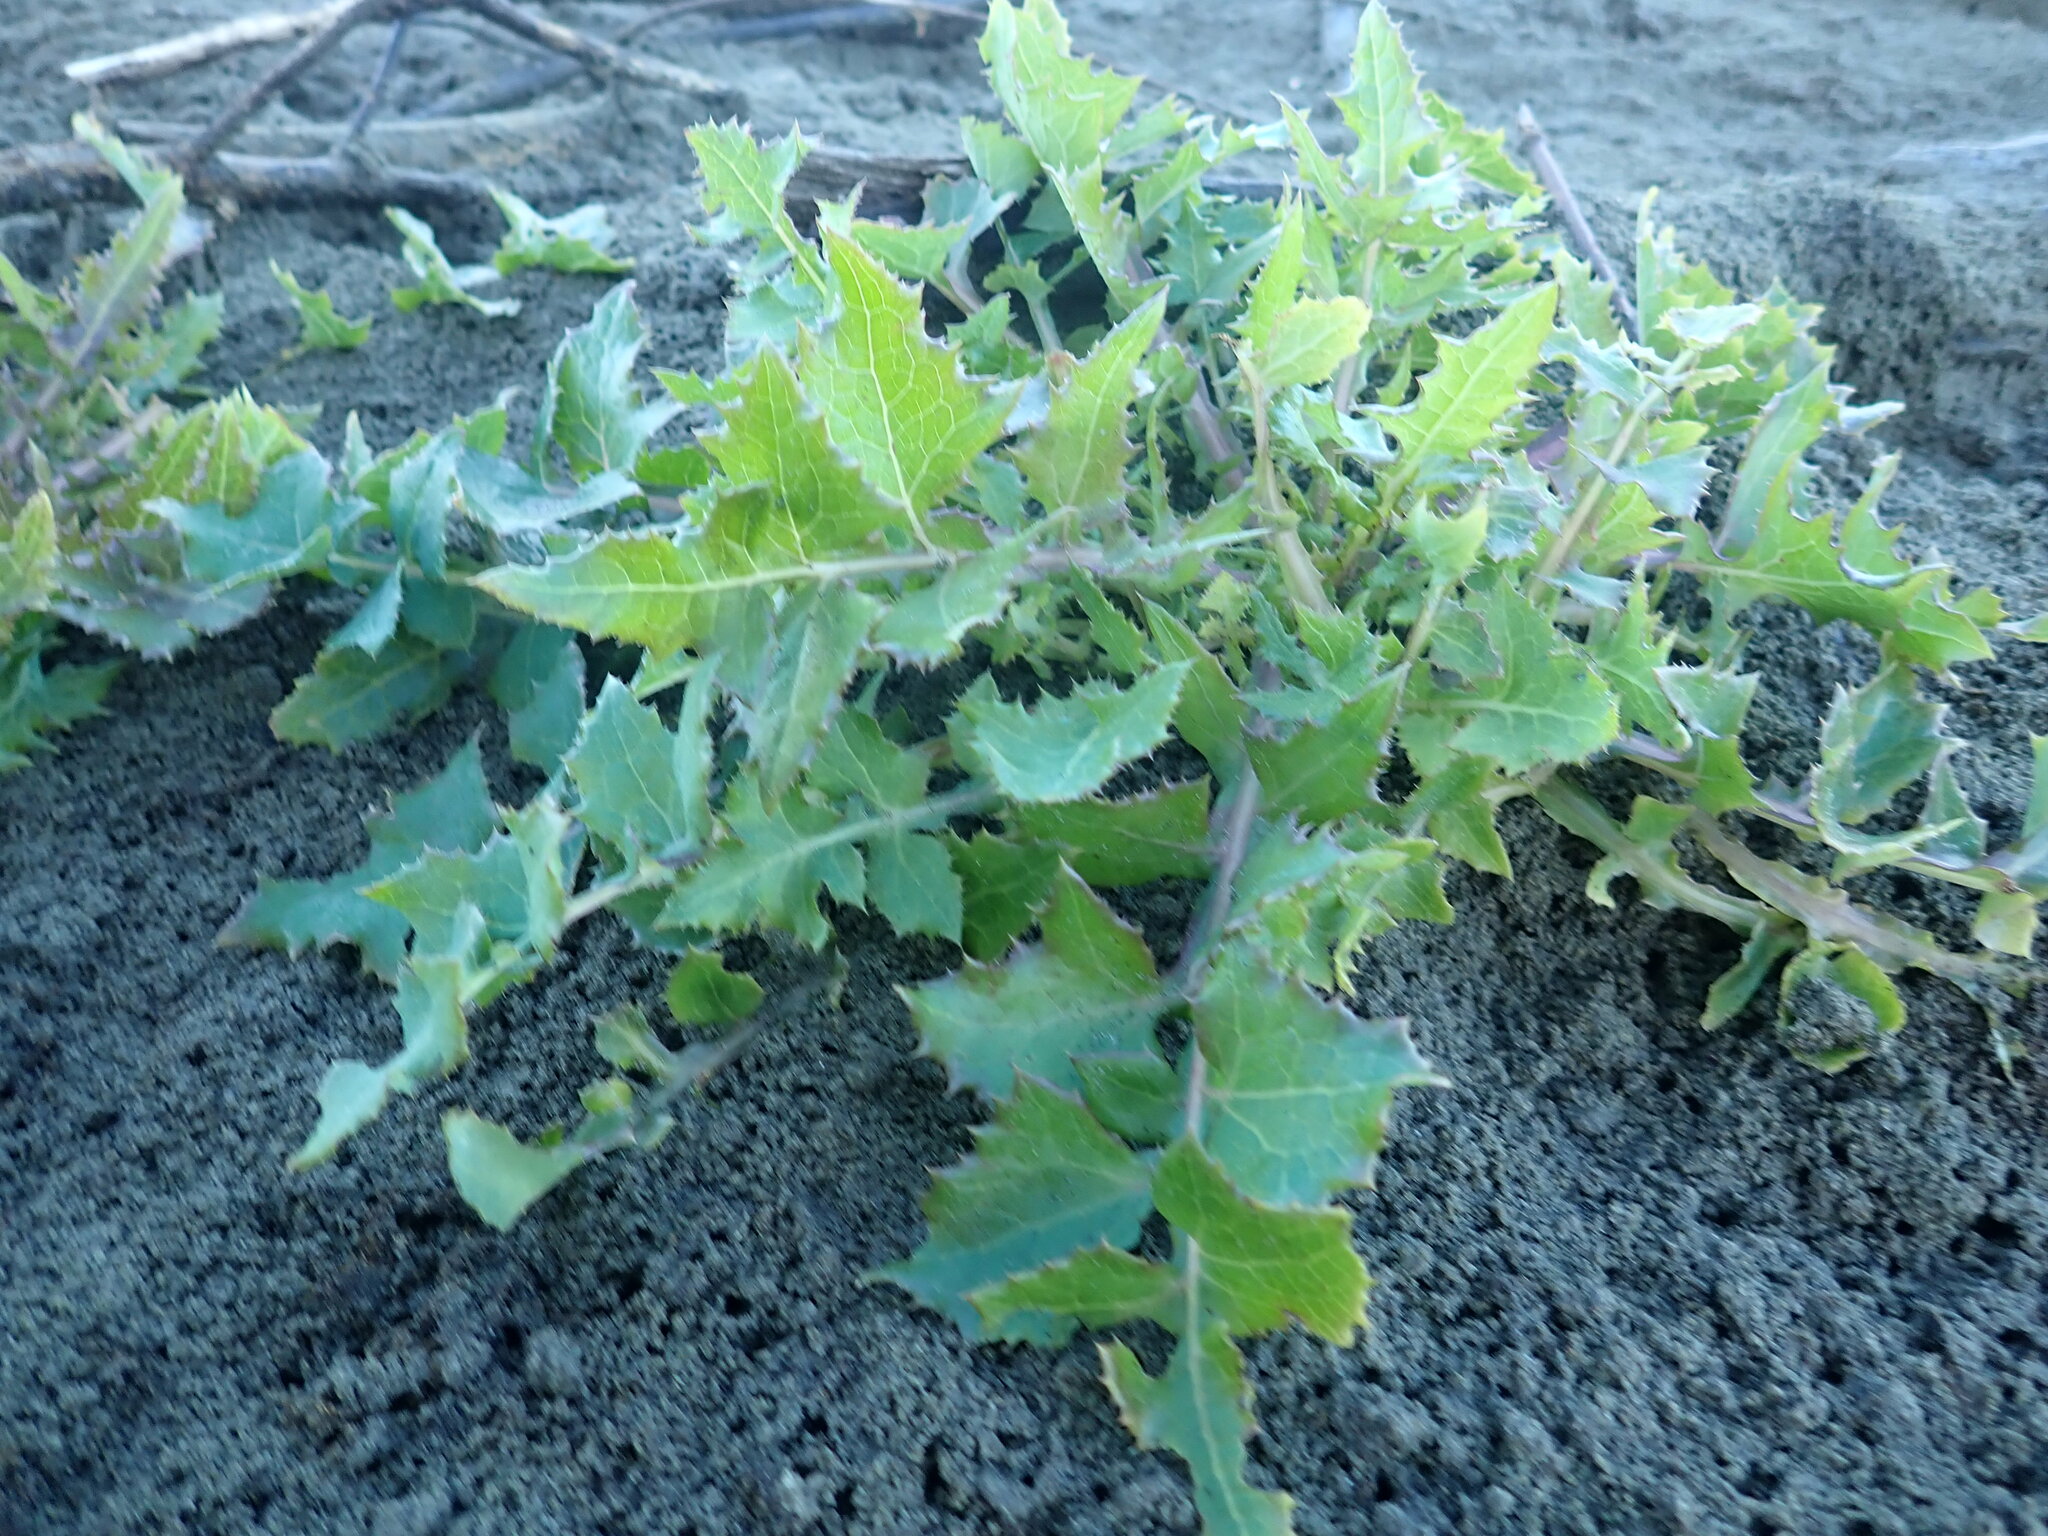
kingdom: Plantae
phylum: Tracheophyta
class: Magnoliopsida
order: Asterales
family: Asteraceae
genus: Sonchus
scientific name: Sonchus oleraceus
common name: Common sowthistle
